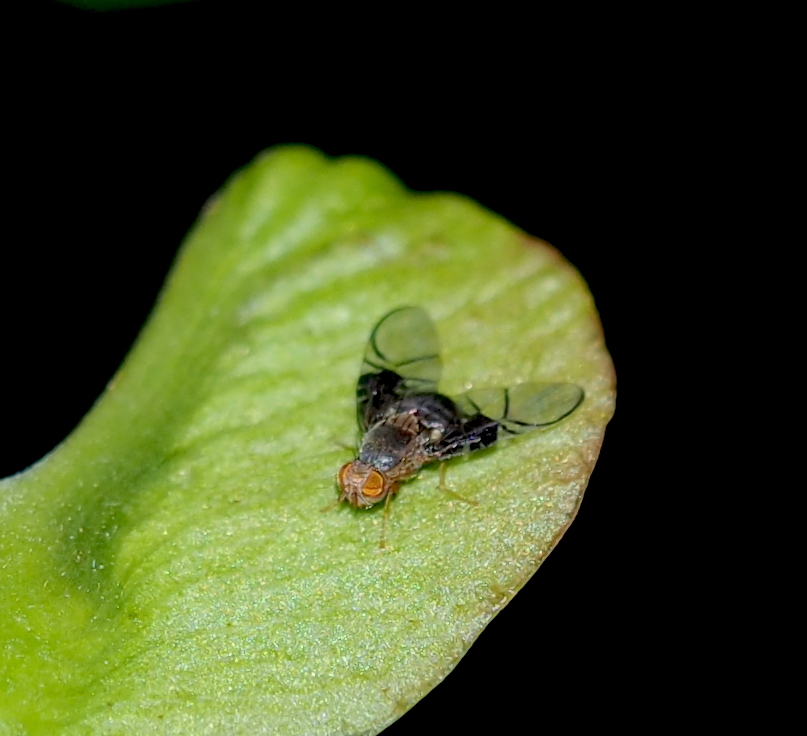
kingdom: Animalia
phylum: Arthropoda
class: Insecta
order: Diptera
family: Tephritidae
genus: Anomoia
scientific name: Anomoia purmunda
